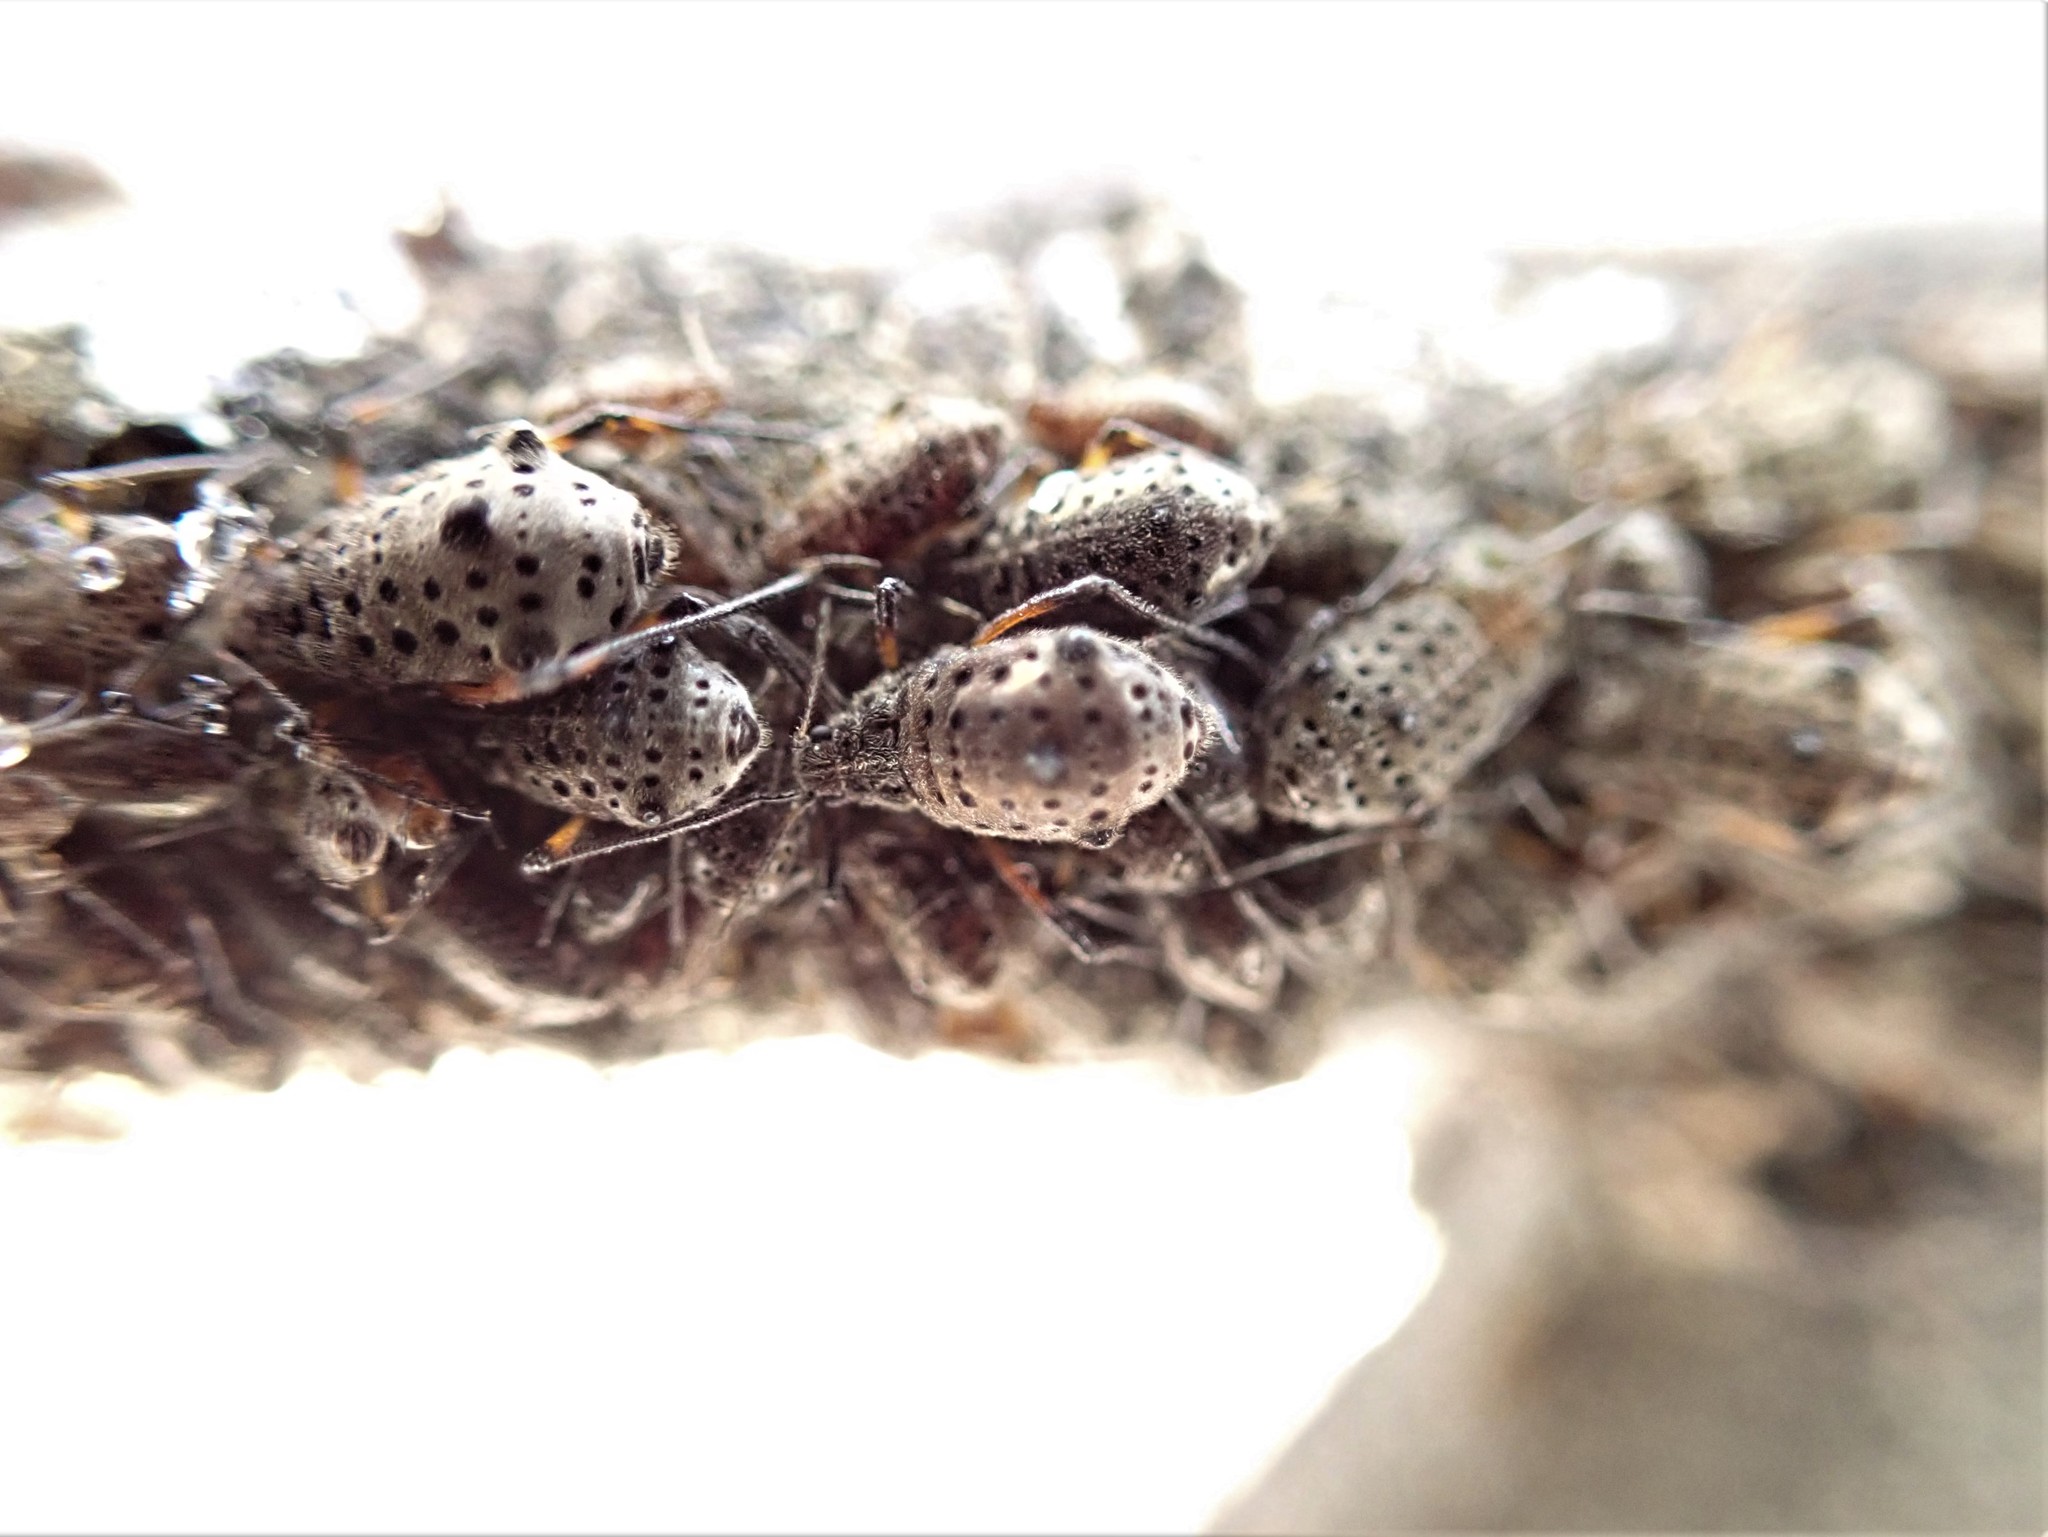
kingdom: Animalia
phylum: Arthropoda
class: Insecta
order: Hemiptera
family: Aphididae
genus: Tuberolachnus
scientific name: Tuberolachnus salignus
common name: Giant willow aphid
